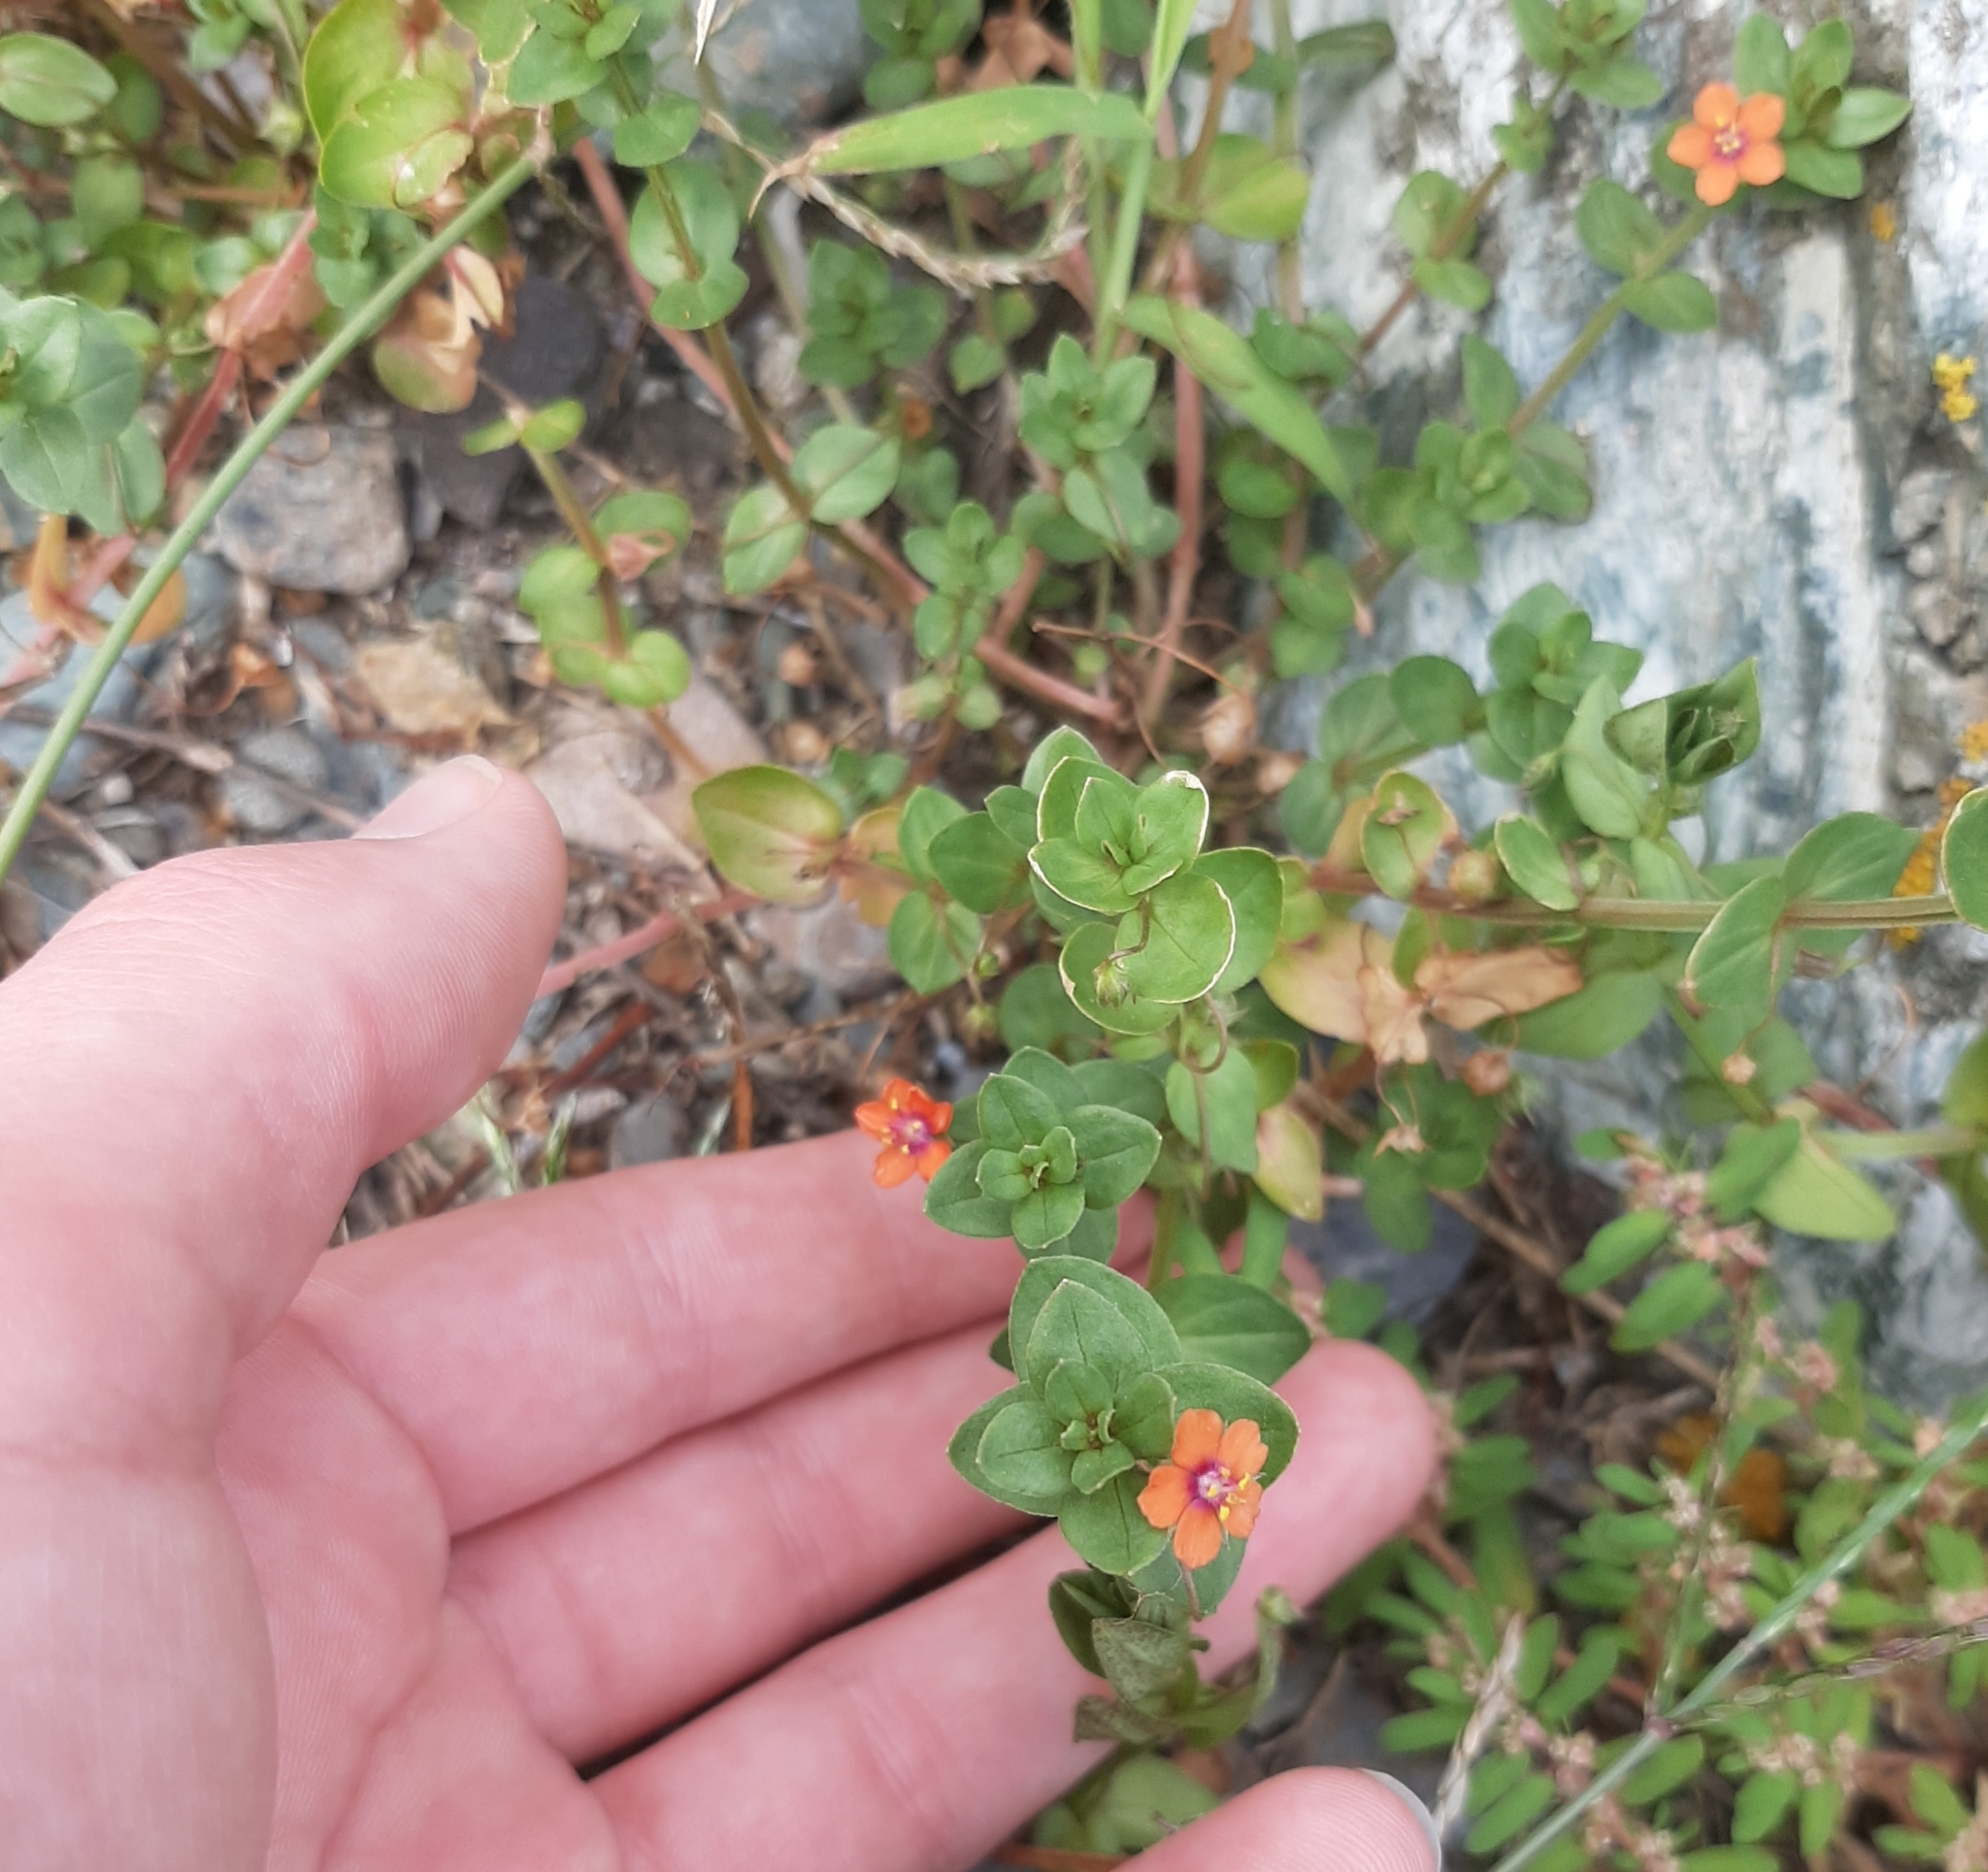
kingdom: Plantae
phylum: Tracheophyta
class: Magnoliopsida
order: Ericales
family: Primulaceae
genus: Lysimachia
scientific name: Lysimachia arvensis
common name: Scarlet pimpernel
